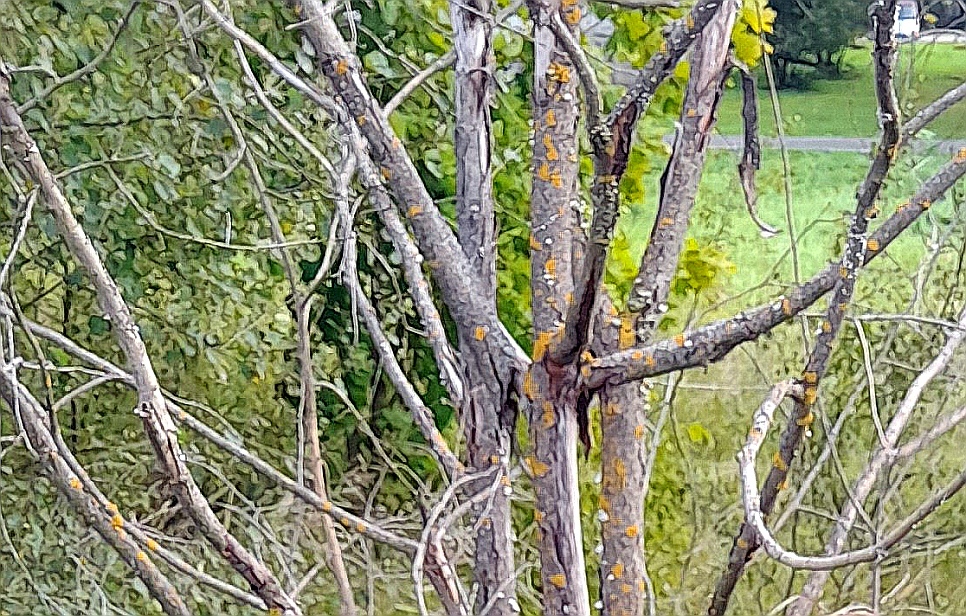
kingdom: Fungi
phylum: Ascomycota
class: Lecanoromycetes
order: Teloschistales
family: Teloschistaceae
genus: Xanthoria
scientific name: Xanthoria parietina
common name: Common orange lichen
